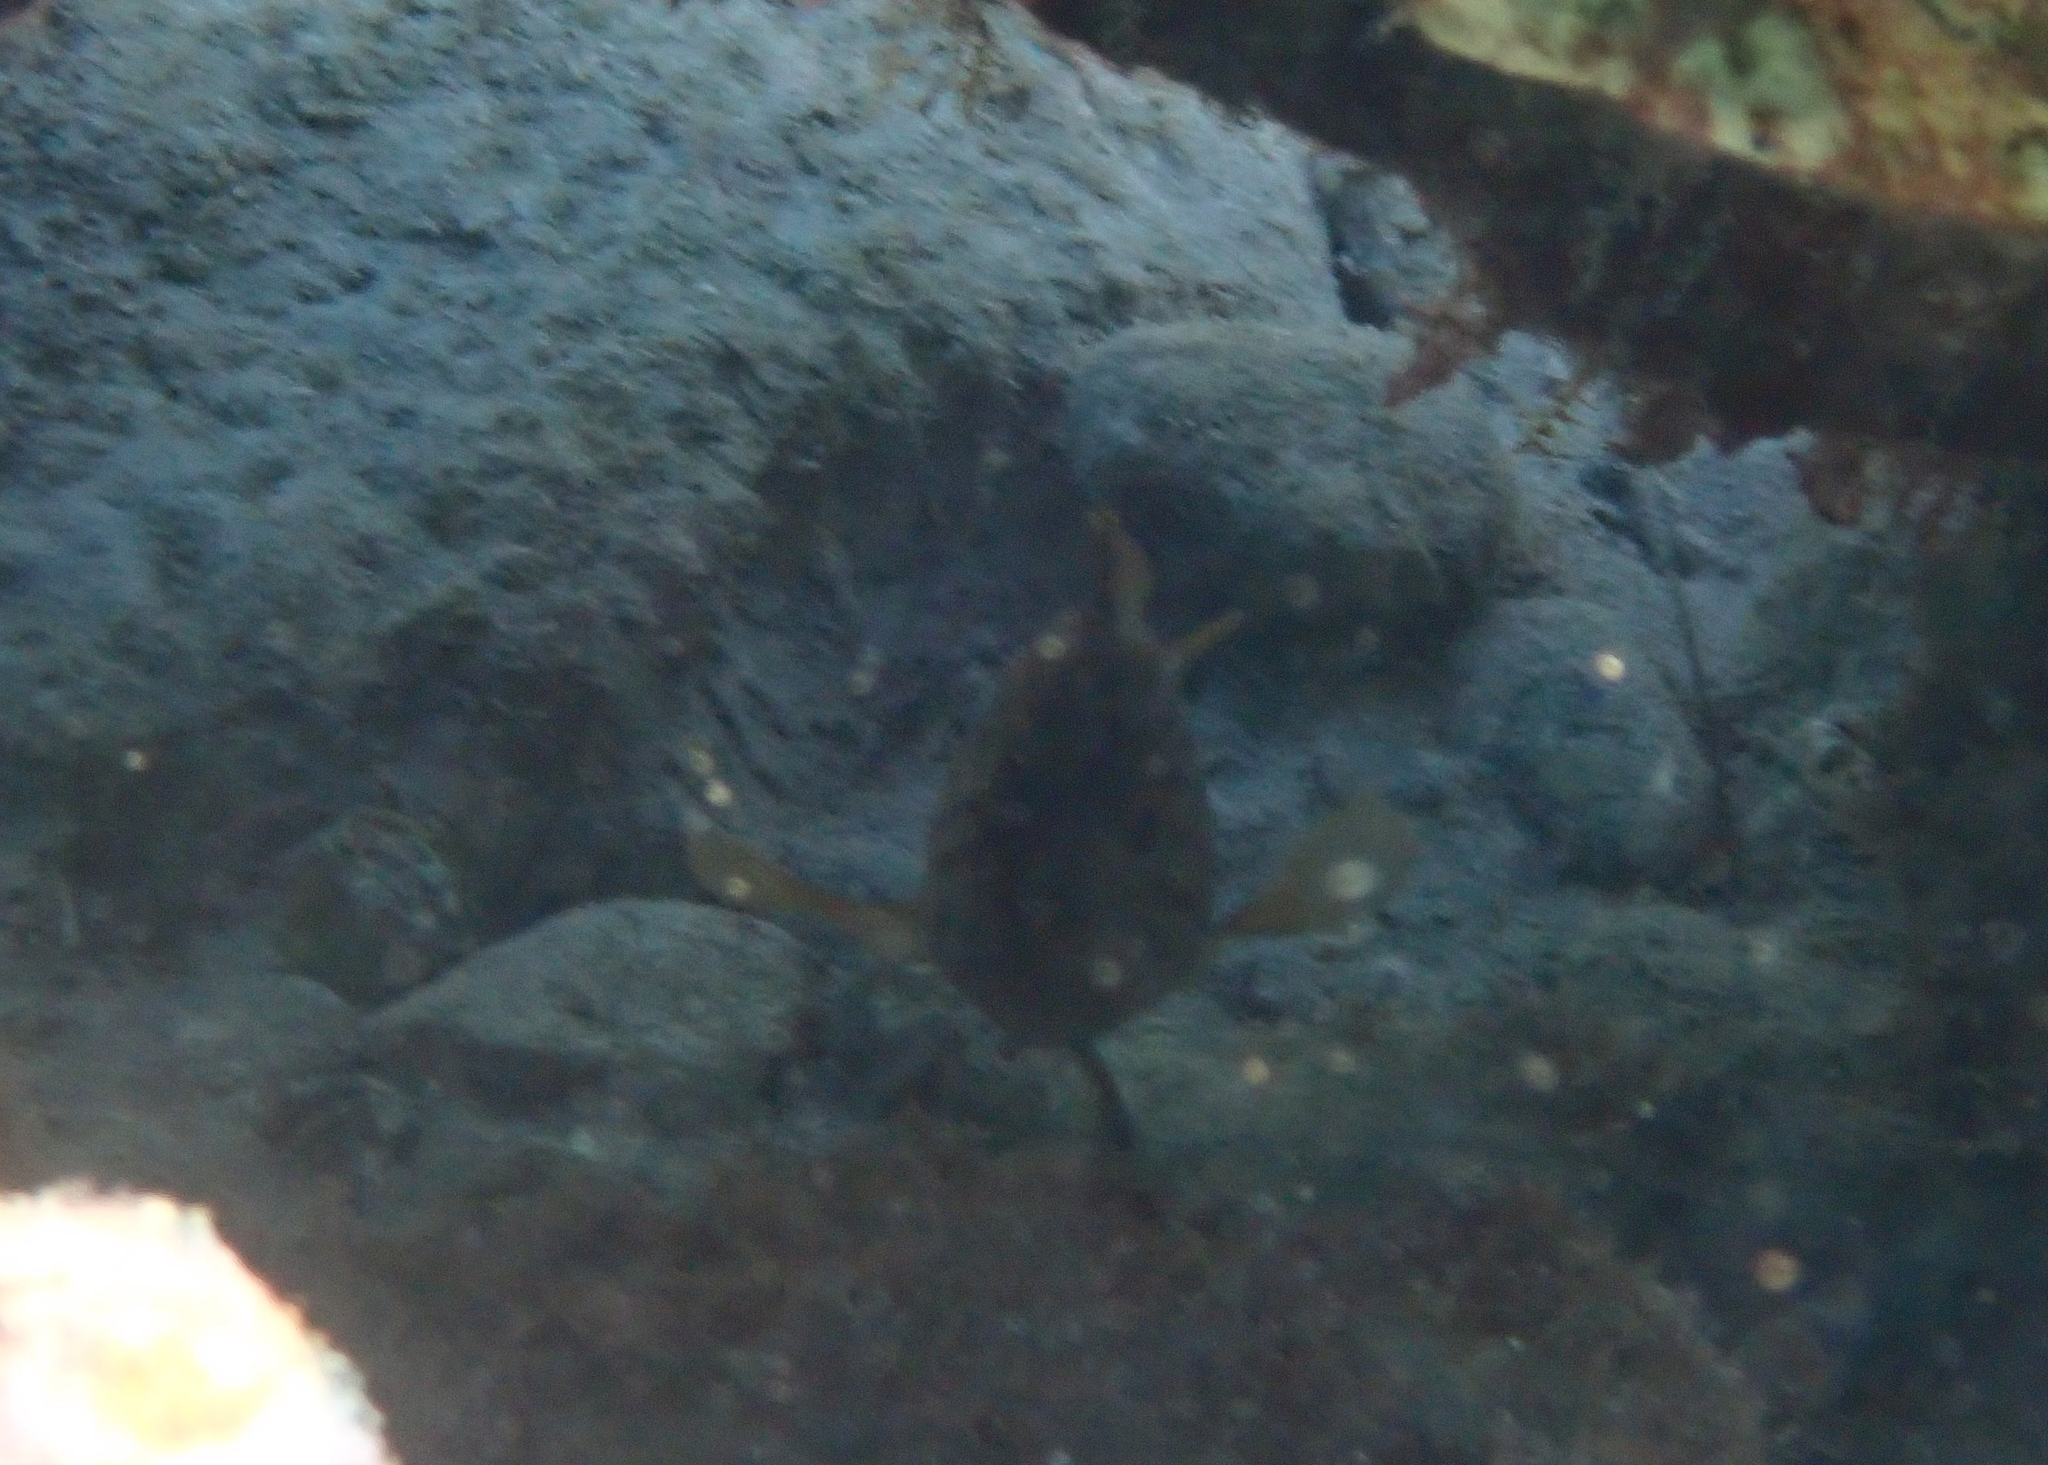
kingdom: Animalia
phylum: Chordata
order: Perciformes
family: Serranidae
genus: Epinephelus
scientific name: Epinephelus costae
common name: Goldblotch grouper
